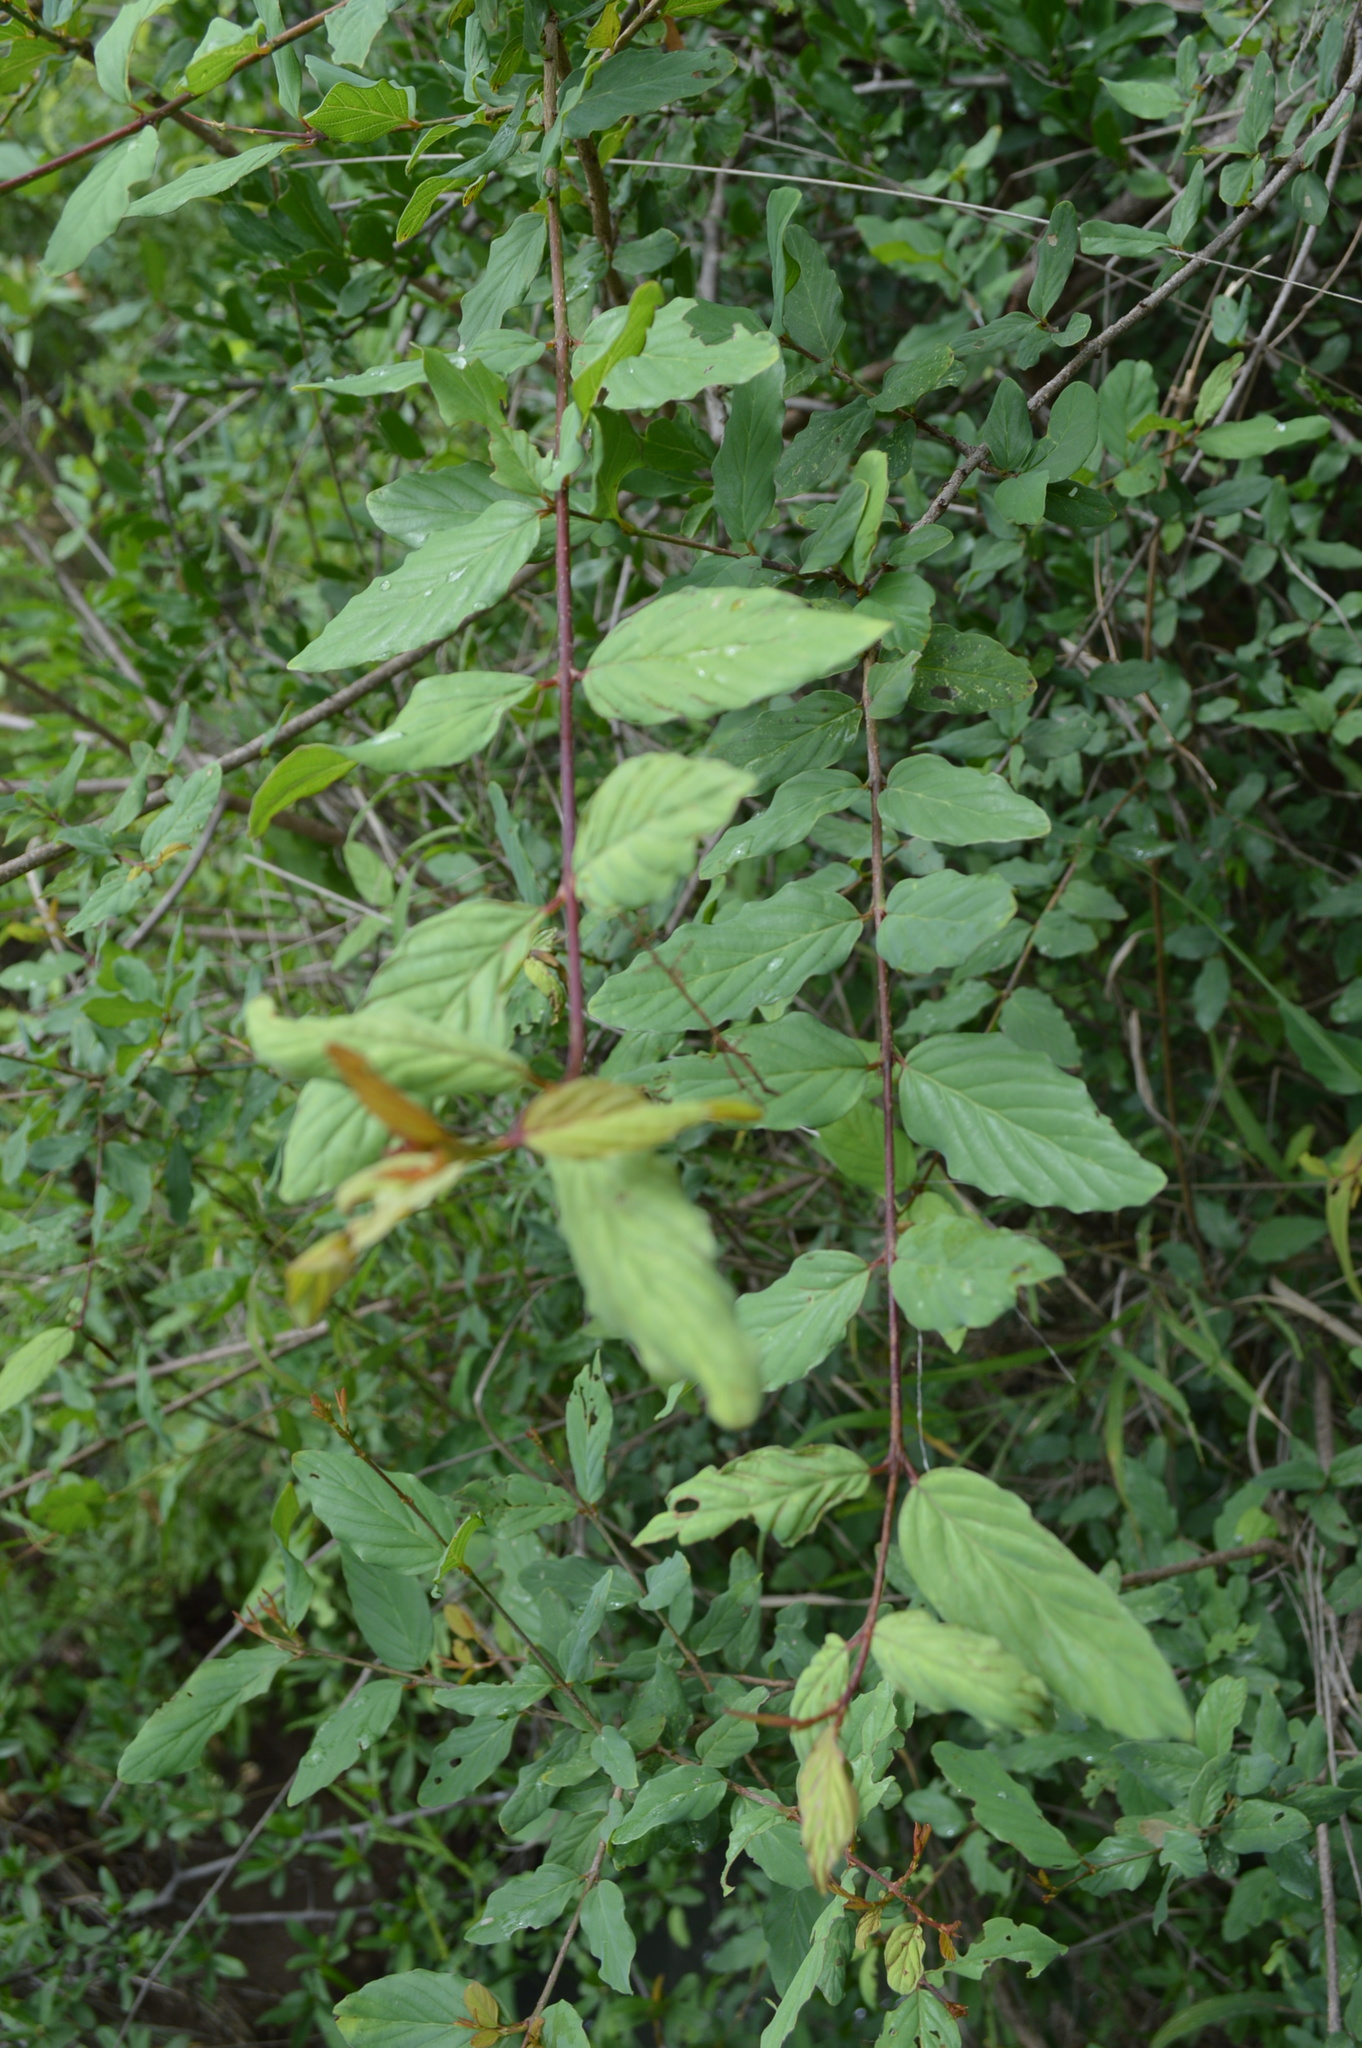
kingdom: Plantae
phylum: Tracheophyta
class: Magnoliopsida
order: Rosales
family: Rhamnaceae
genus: Phyllogeiton
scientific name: Phyllogeiton zeyheri
